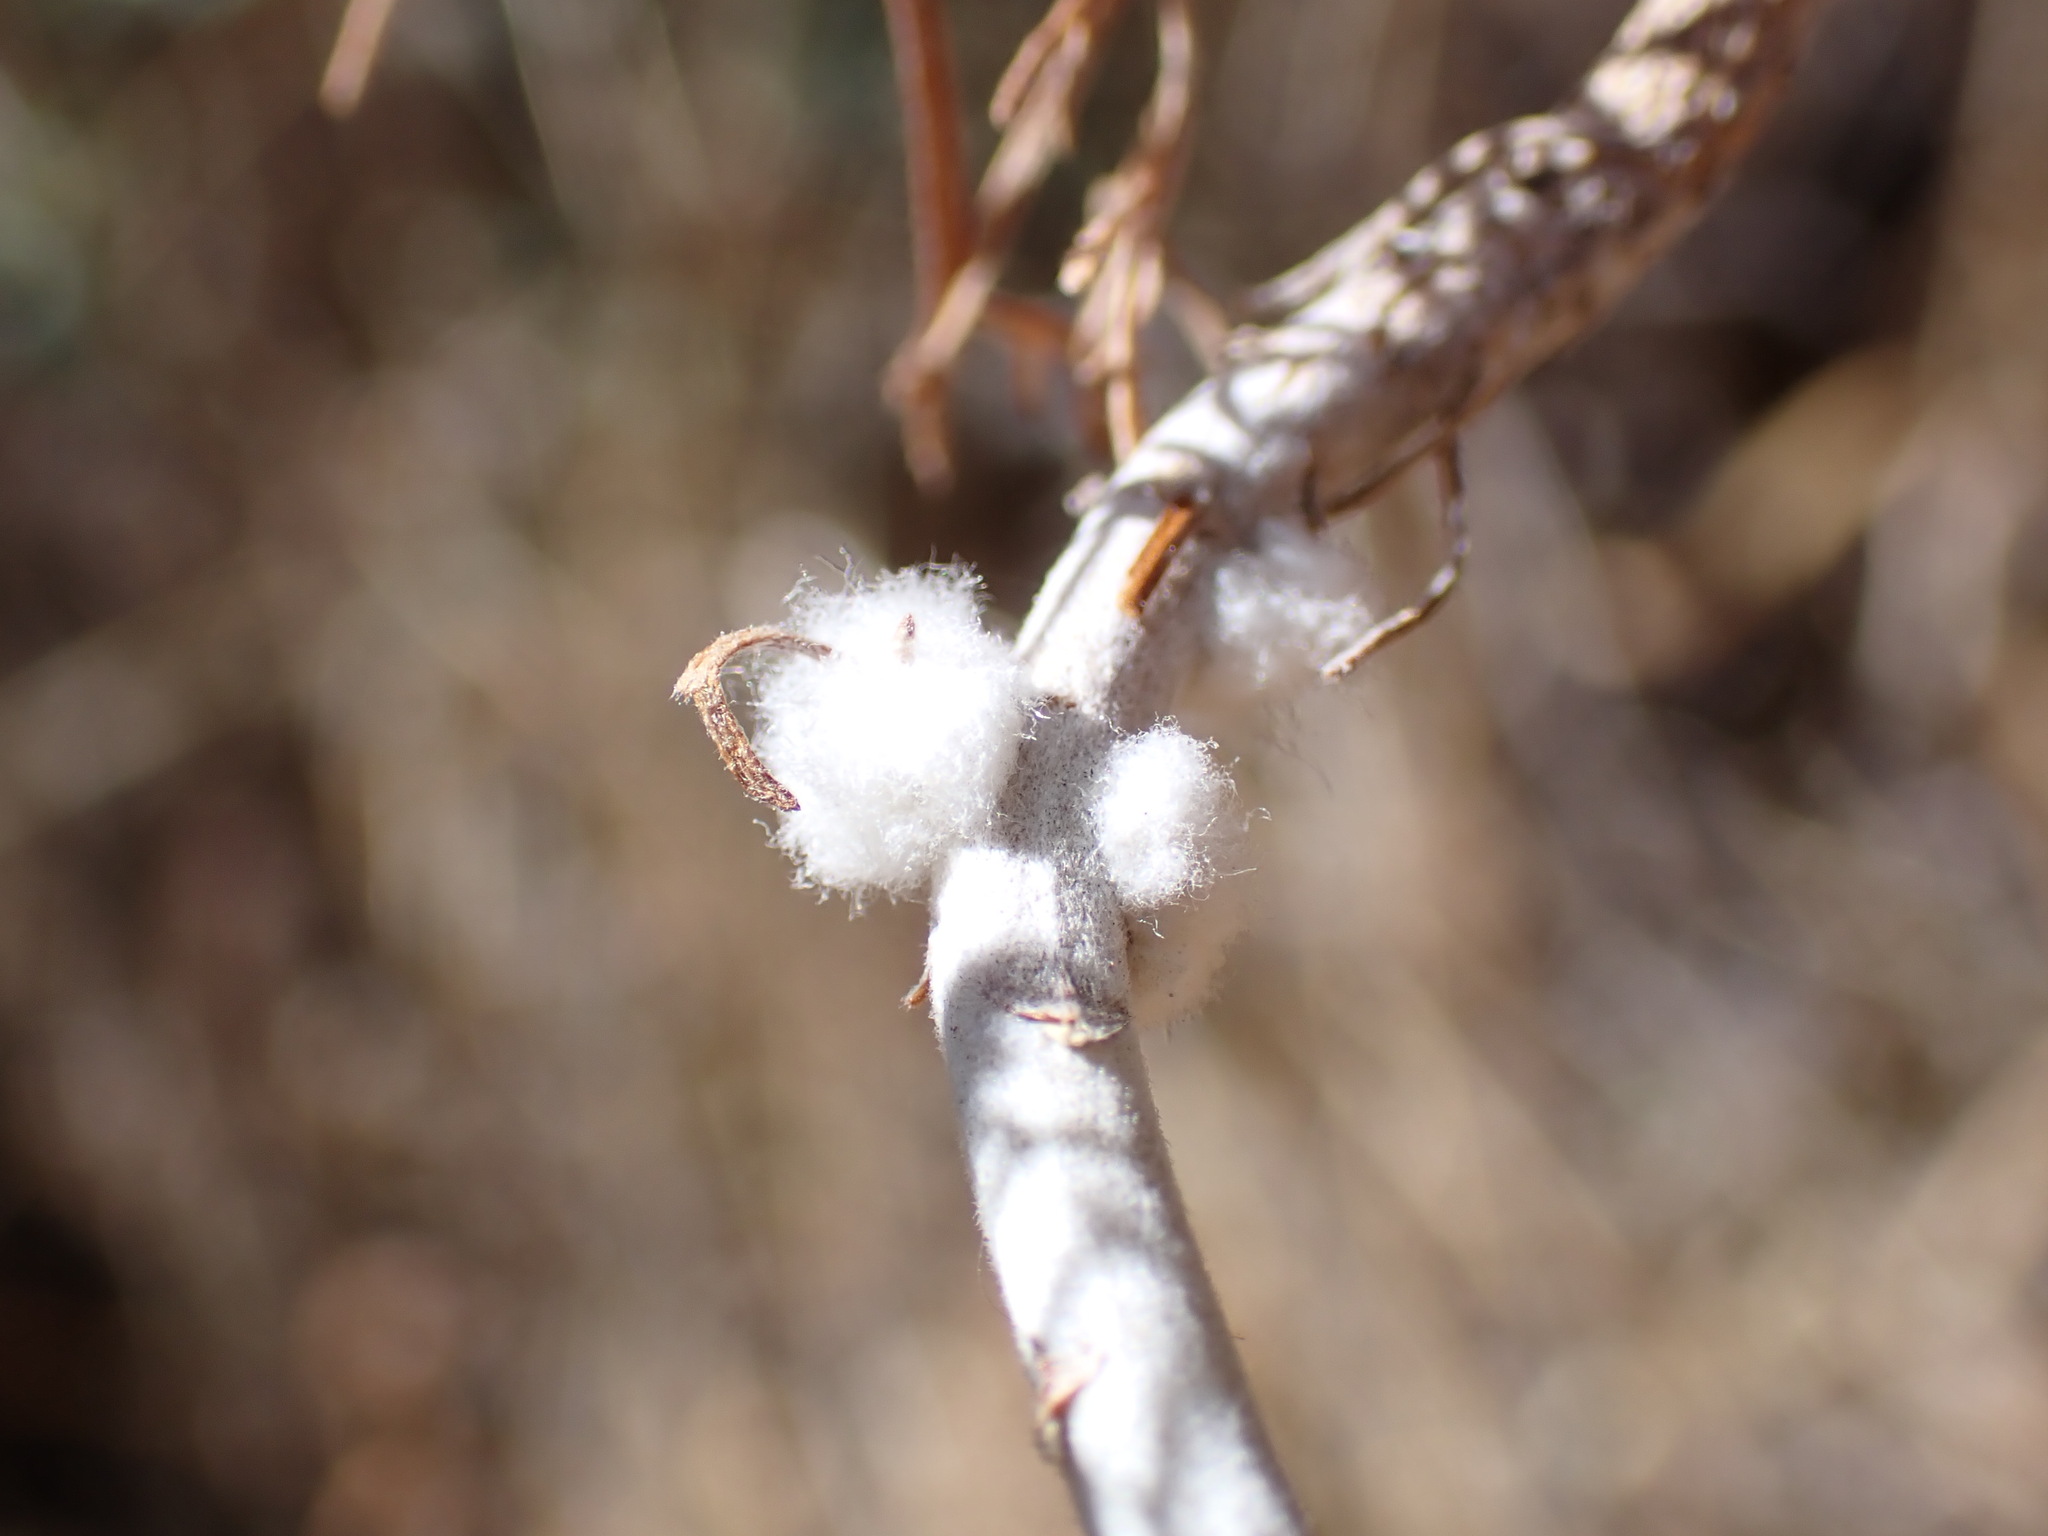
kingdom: Animalia
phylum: Arthropoda
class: Insecta
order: Diptera
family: Cecidomyiidae
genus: Rhopalomyia
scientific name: Rhopalomyia floccosa
